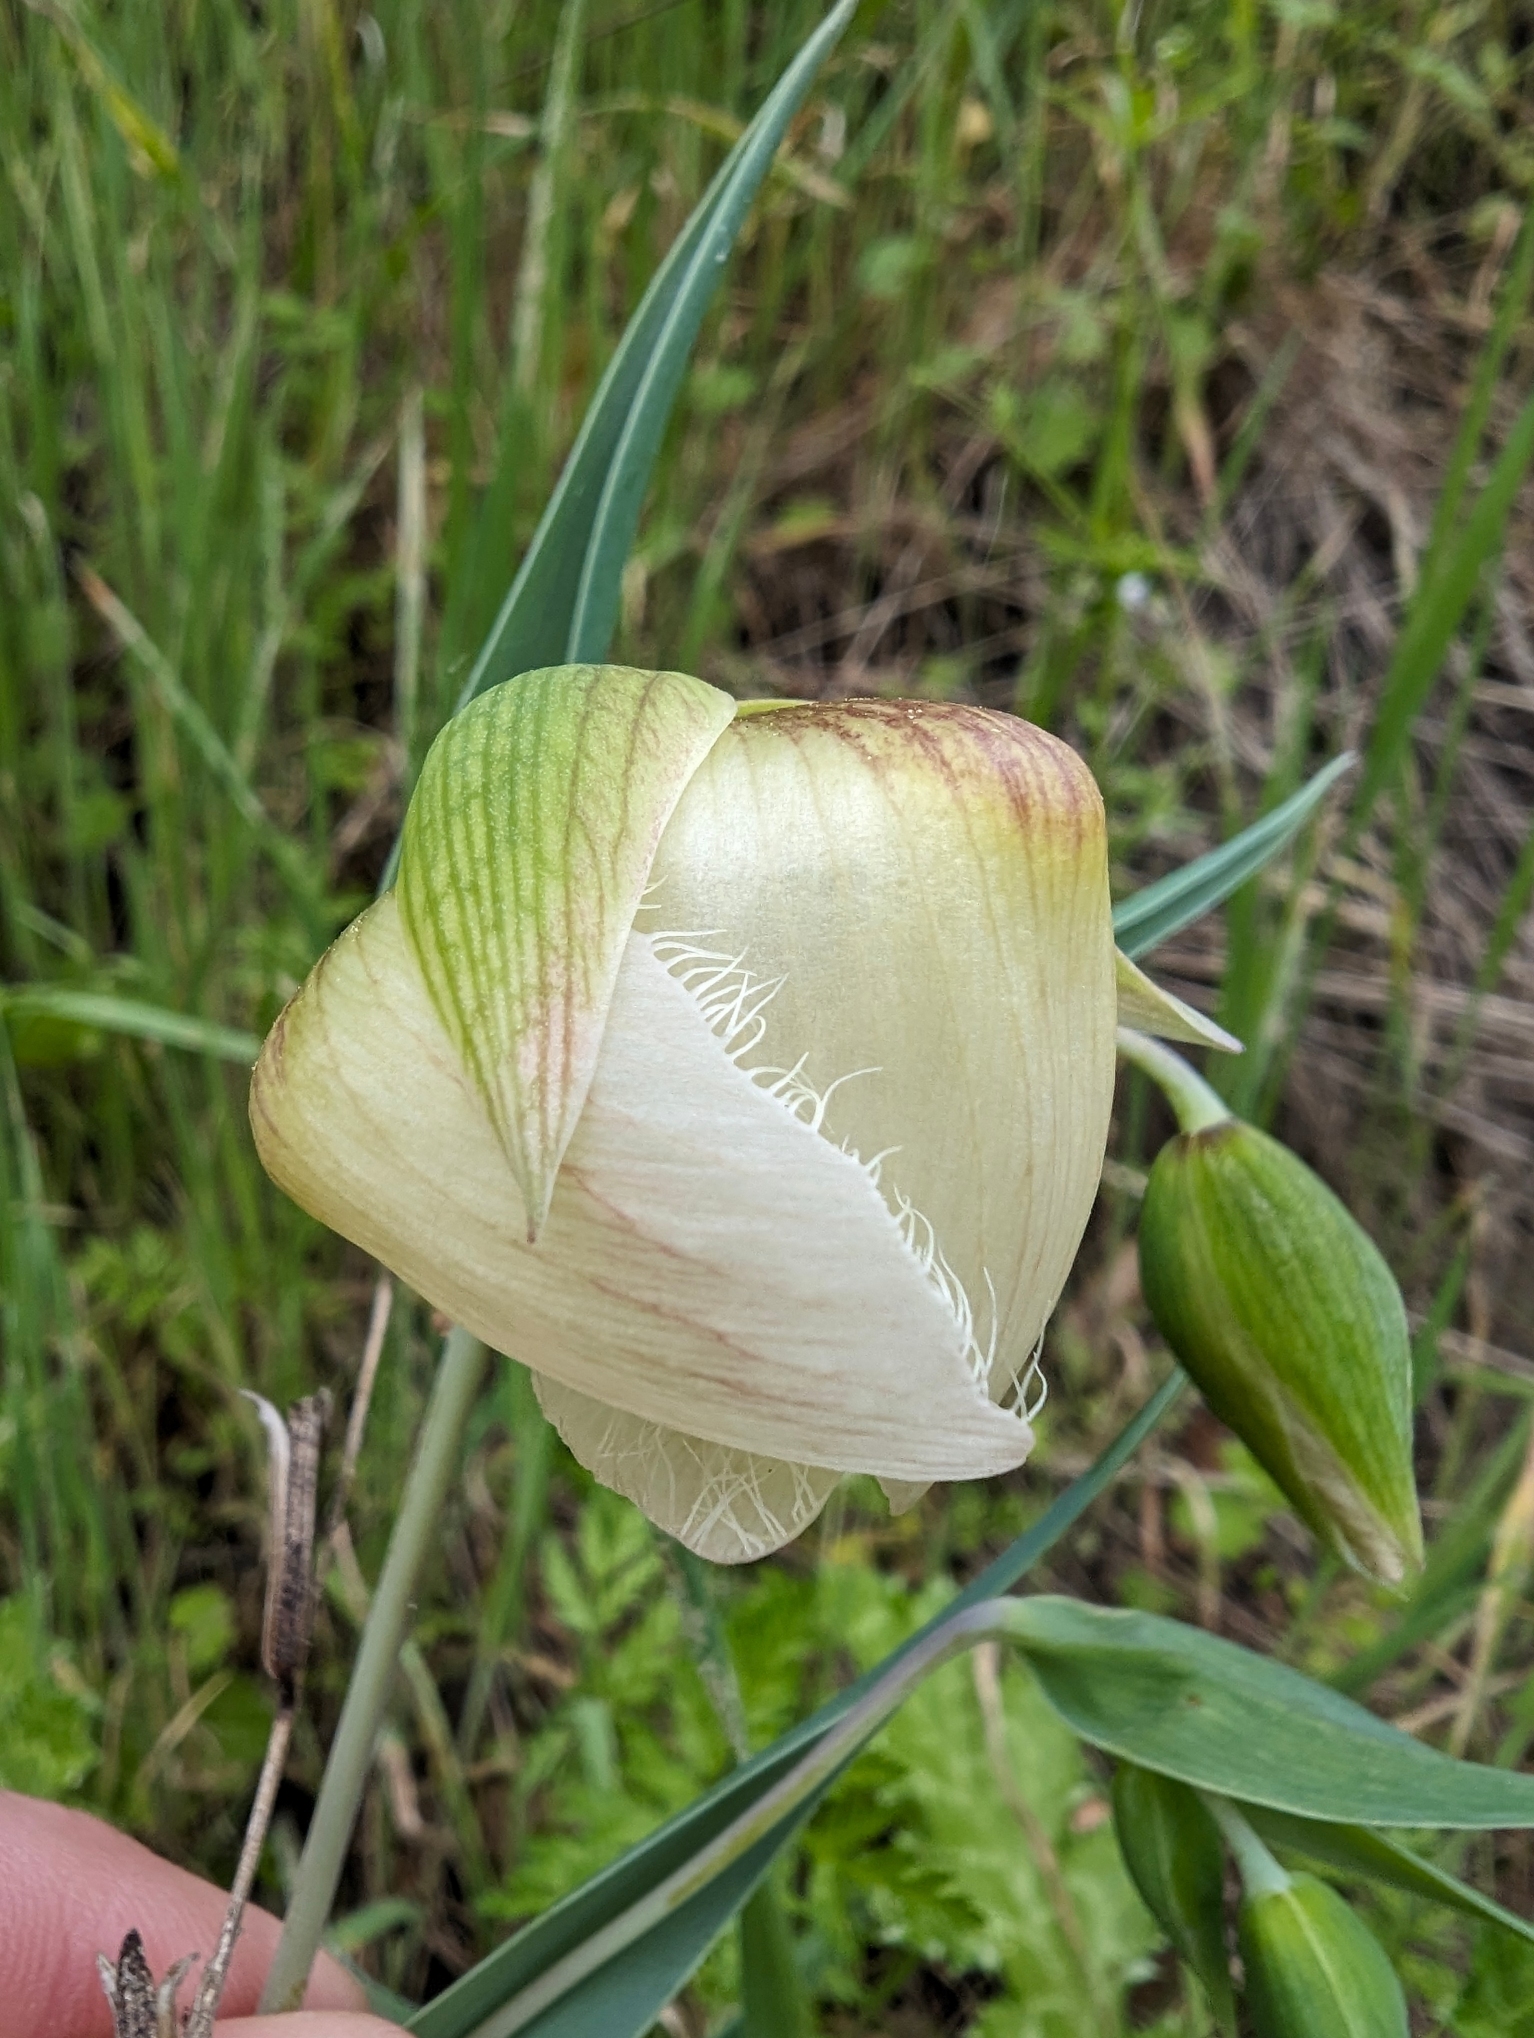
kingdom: Plantae
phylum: Tracheophyta
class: Liliopsida
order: Liliales
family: Liliaceae
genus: Calochortus
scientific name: Calochortus albus
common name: Fairy-lantern
